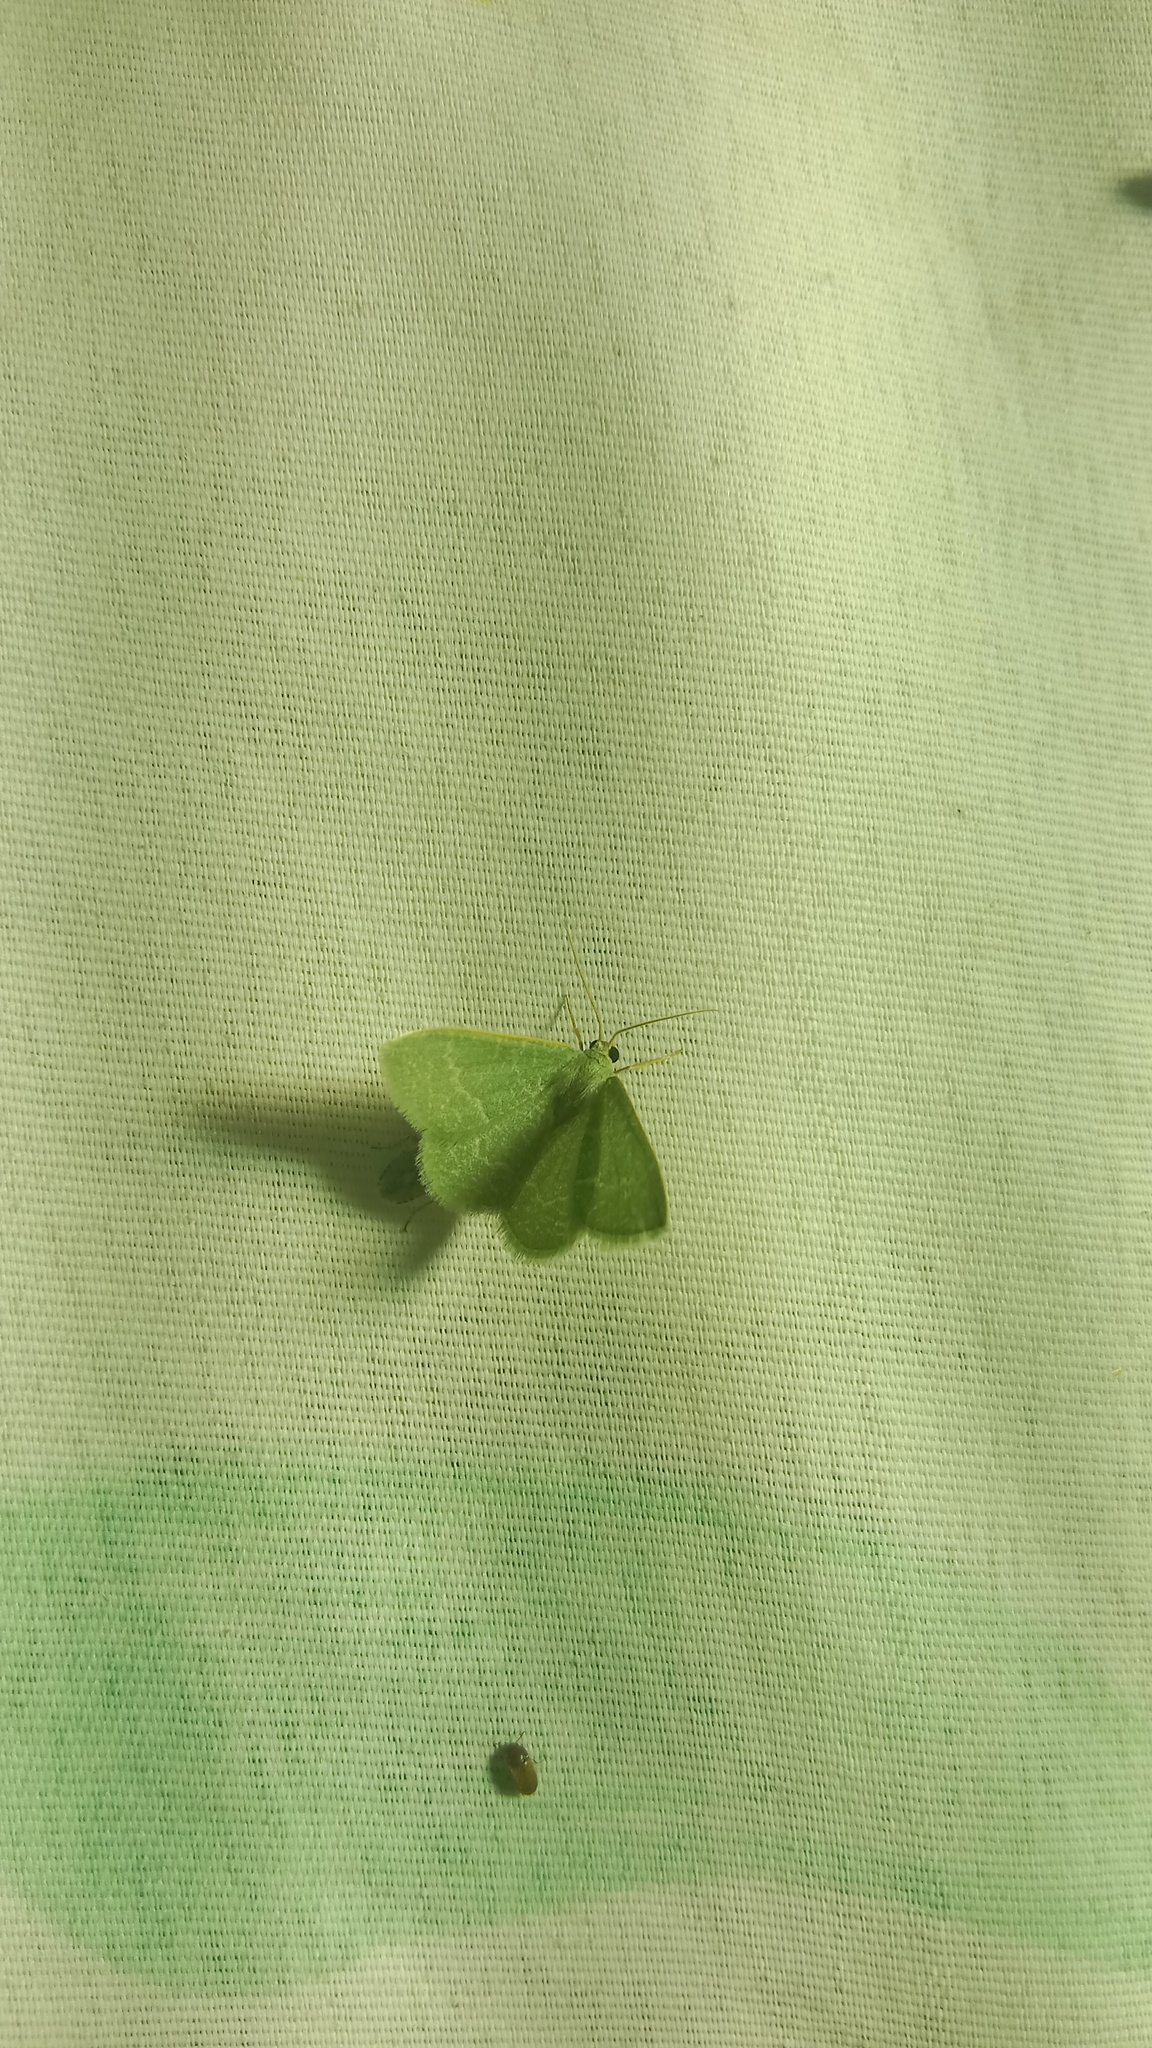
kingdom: Animalia
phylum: Arthropoda
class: Insecta
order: Lepidoptera
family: Geometridae
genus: Chlorissa
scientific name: Chlorissa etruscaria
